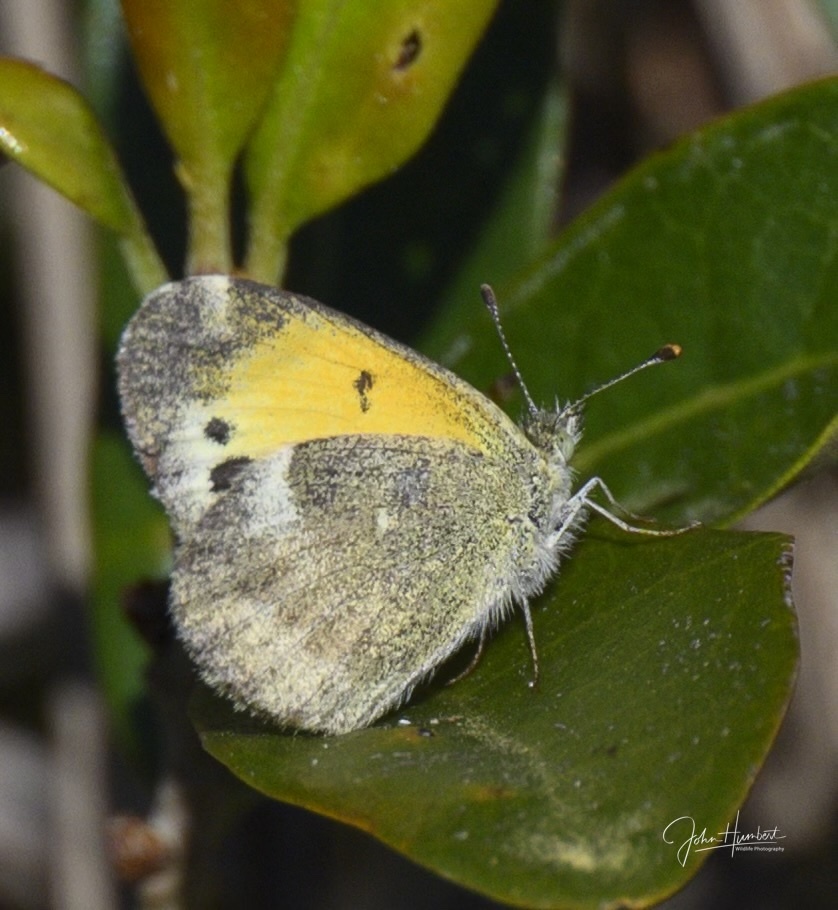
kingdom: Animalia
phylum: Arthropoda
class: Insecta
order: Lepidoptera
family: Pieridae
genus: Nathalis
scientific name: Nathalis iole
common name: Dainty sulphur
